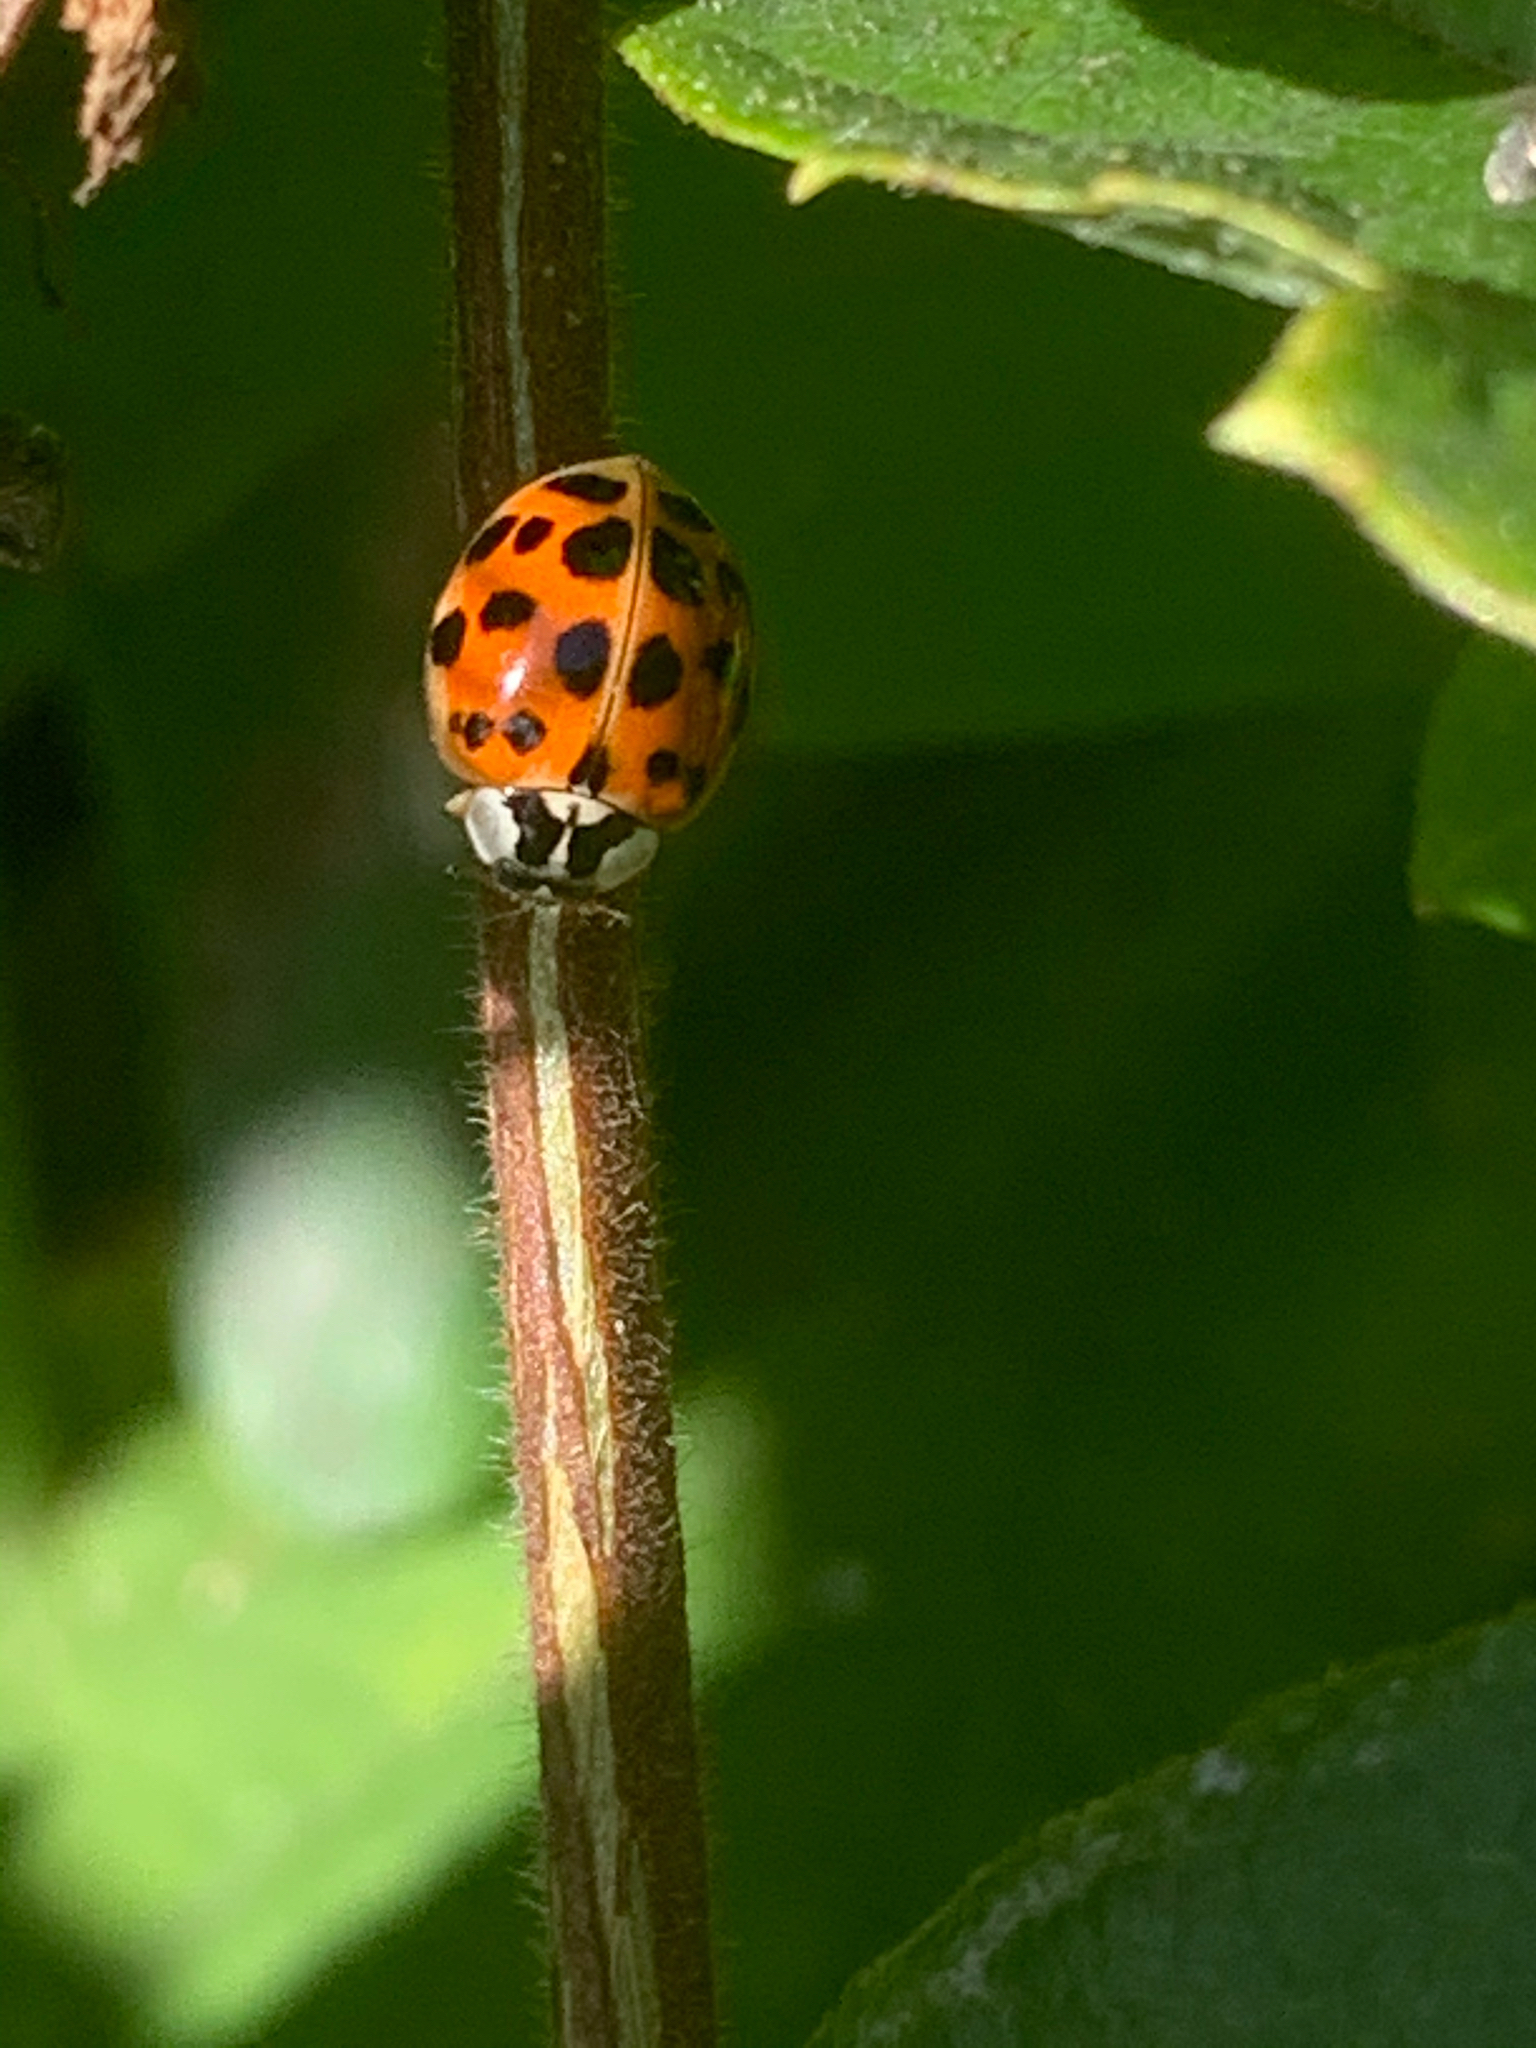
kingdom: Animalia
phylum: Arthropoda
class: Insecta
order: Coleoptera
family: Coccinellidae
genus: Harmonia
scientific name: Harmonia axyridis
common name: Harlequin ladybird
